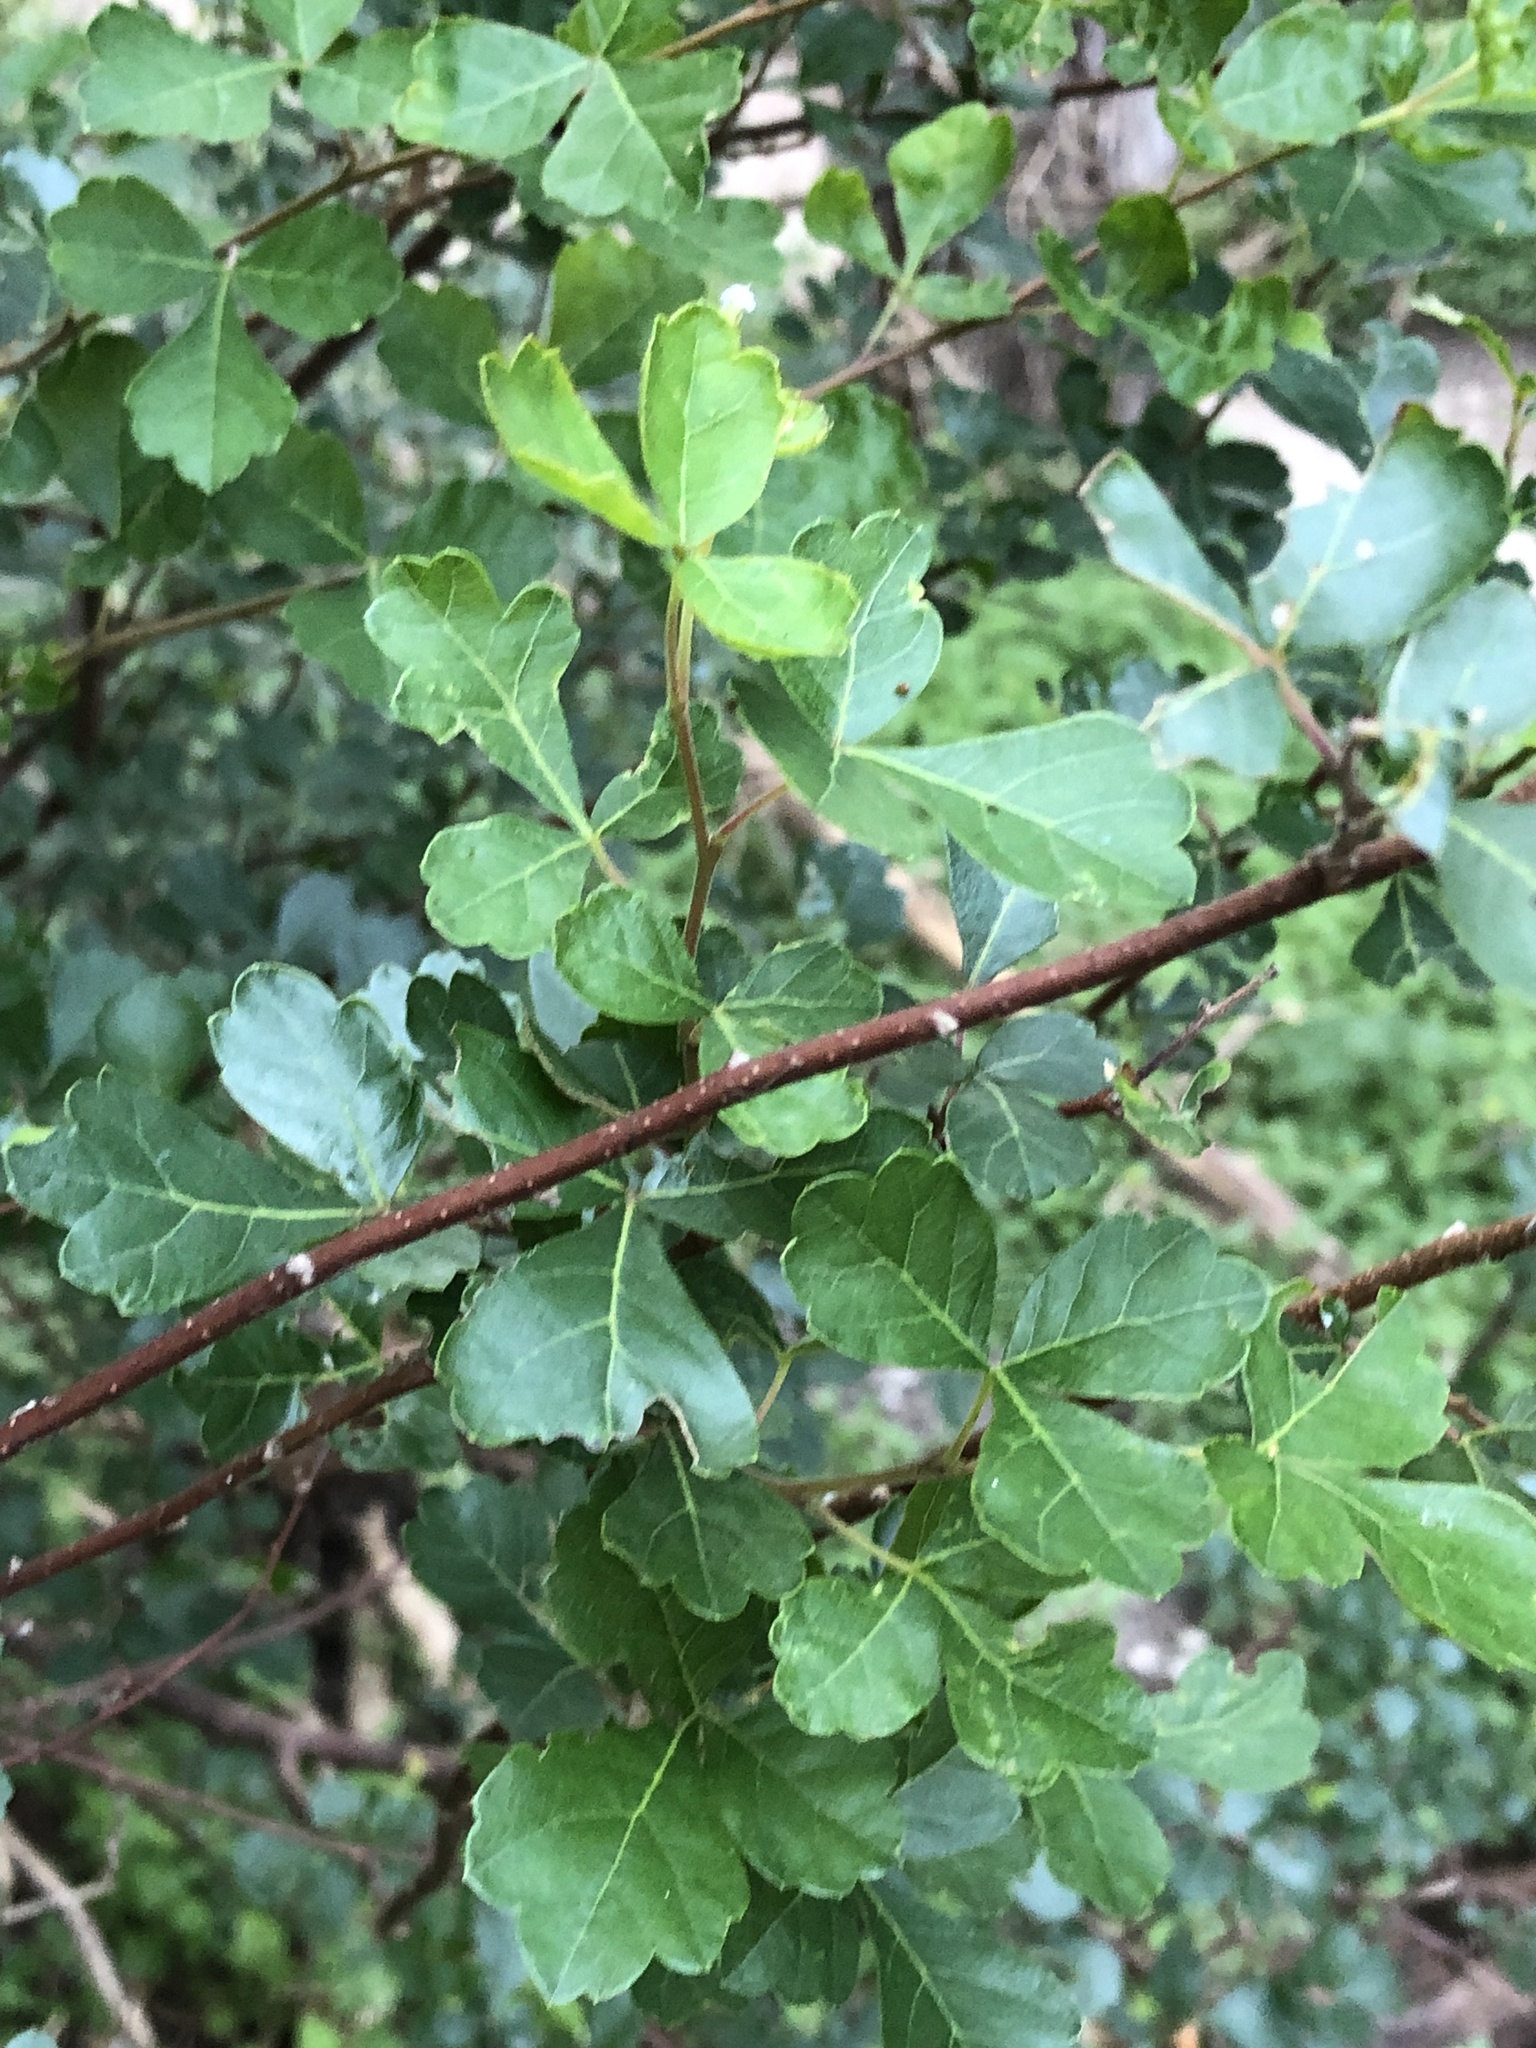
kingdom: Plantae
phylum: Tracheophyta
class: Magnoliopsida
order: Sapindales
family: Anacardiaceae
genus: Rhus
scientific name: Rhus aromatica
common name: Aromatic sumac
